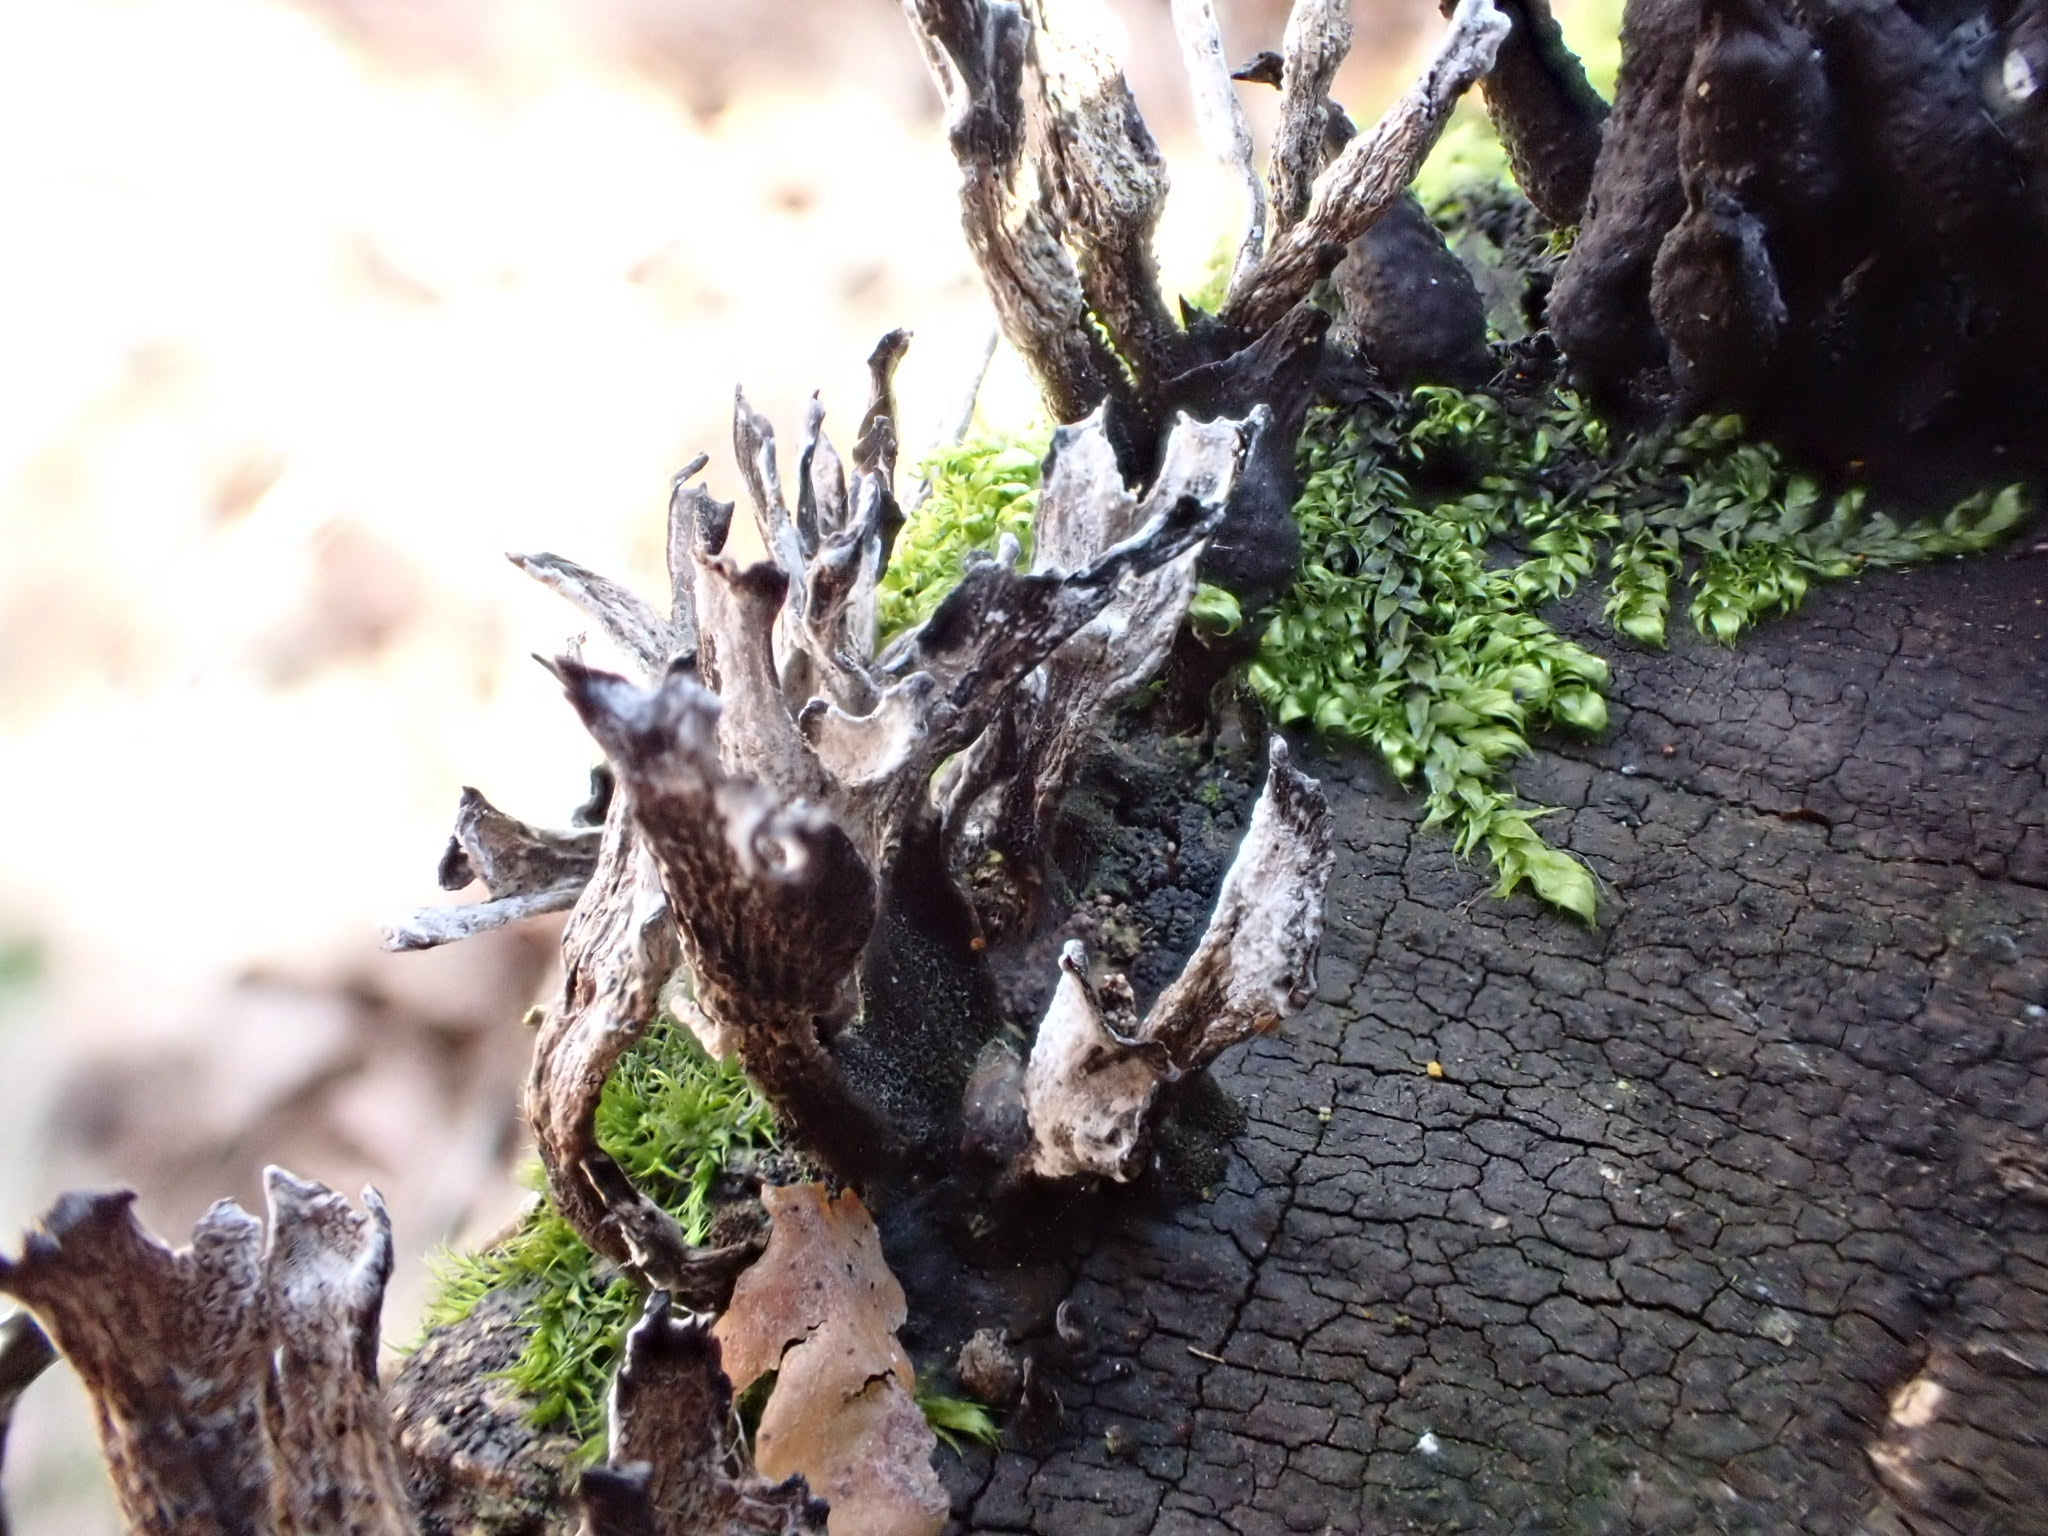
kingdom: Fungi
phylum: Ascomycota
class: Sordariomycetes
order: Xylariales
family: Xylariaceae
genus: Xylaria
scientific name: Xylaria hypoxylon
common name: Candle-snuff fungus
